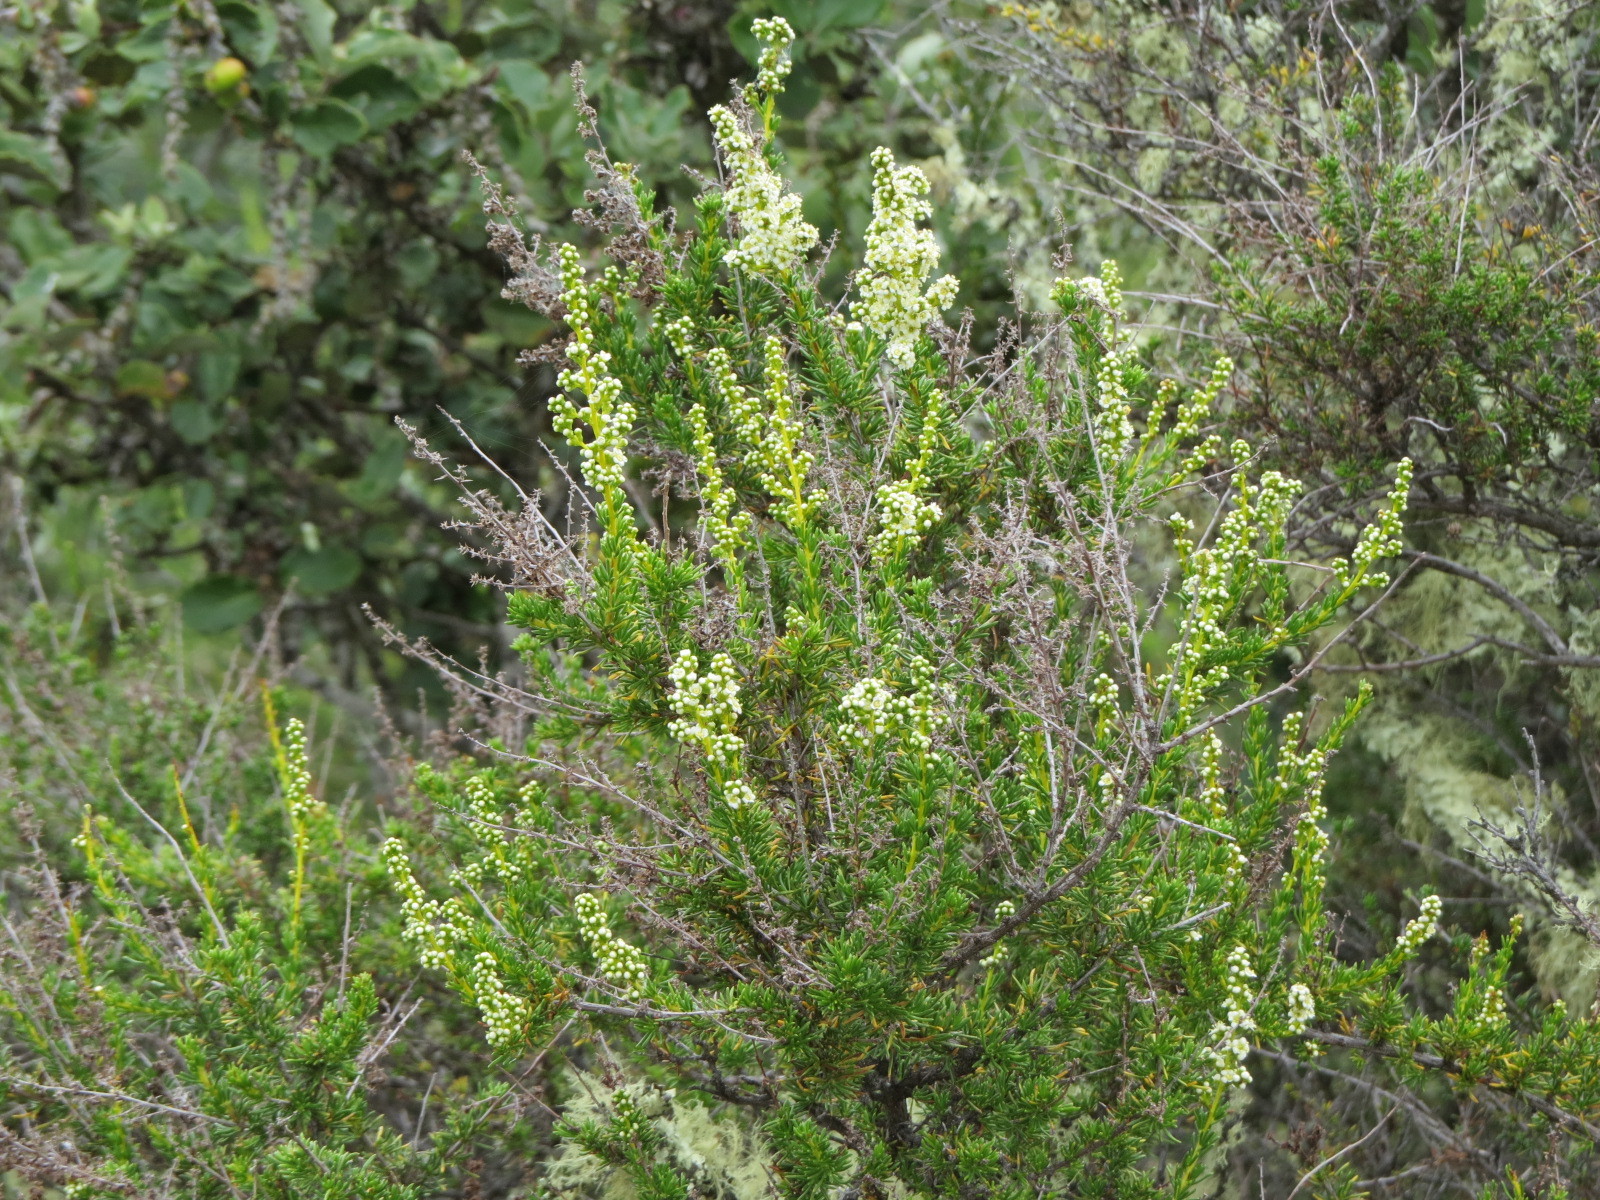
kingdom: Plantae
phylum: Tracheophyta
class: Magnoliopsida
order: Rosales
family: Rosaceae
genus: Adenostoma
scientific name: Adenostoma fasciculatum
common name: Chamise
